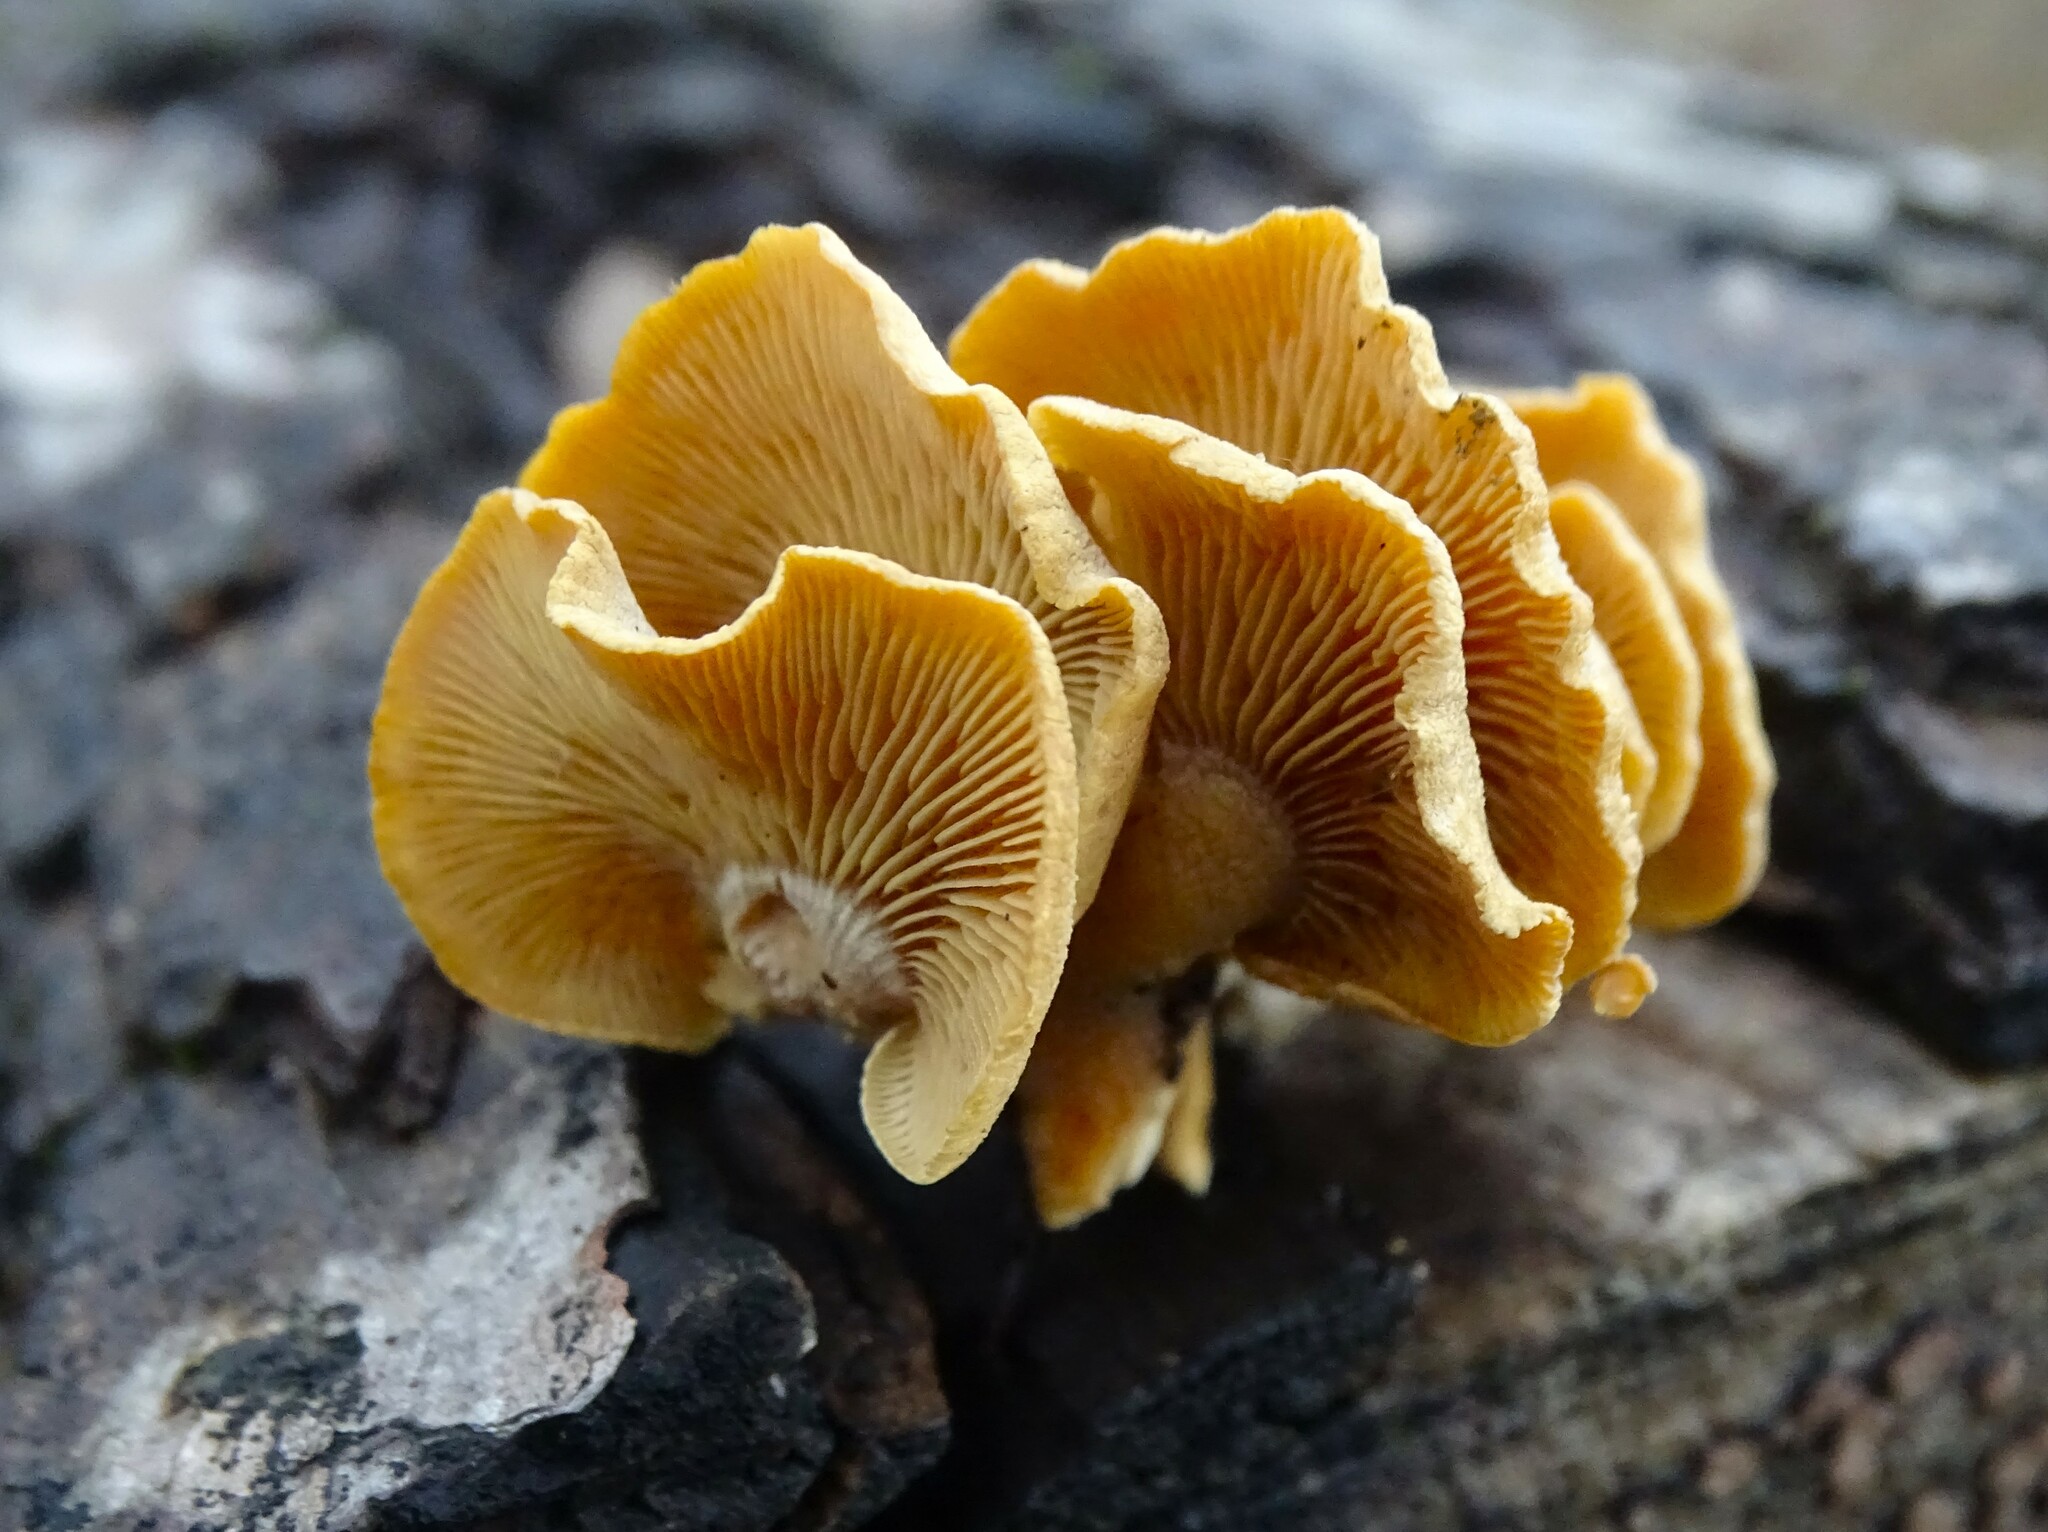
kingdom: Fungi
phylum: Basidiomycota
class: Agaricomycetes
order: Agaricales
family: Mycenaceae
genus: Panellus
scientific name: Panellus stipticus
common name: Bitter oysterling
